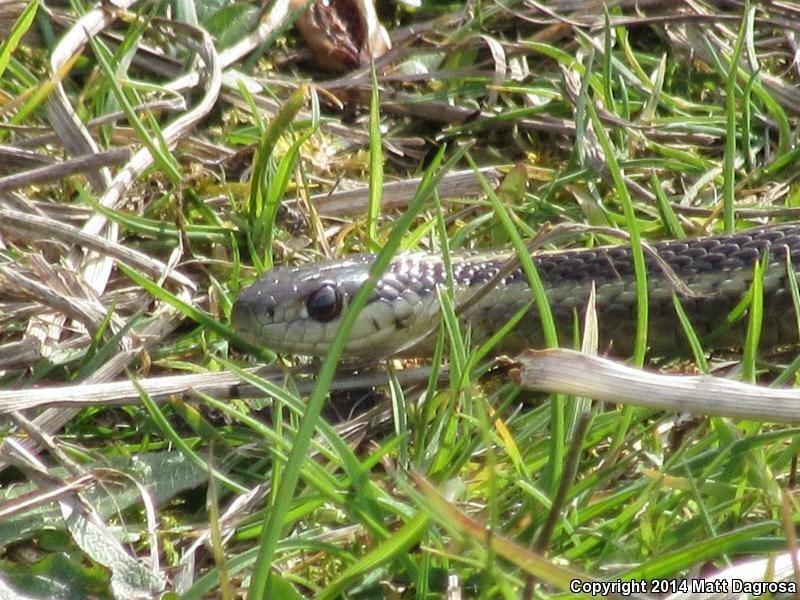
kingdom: Animalia
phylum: Chordata
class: Squamata
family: Colubridae
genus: Thamnophis
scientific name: Thamnophis ordinoides
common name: Northwestern garter snake
